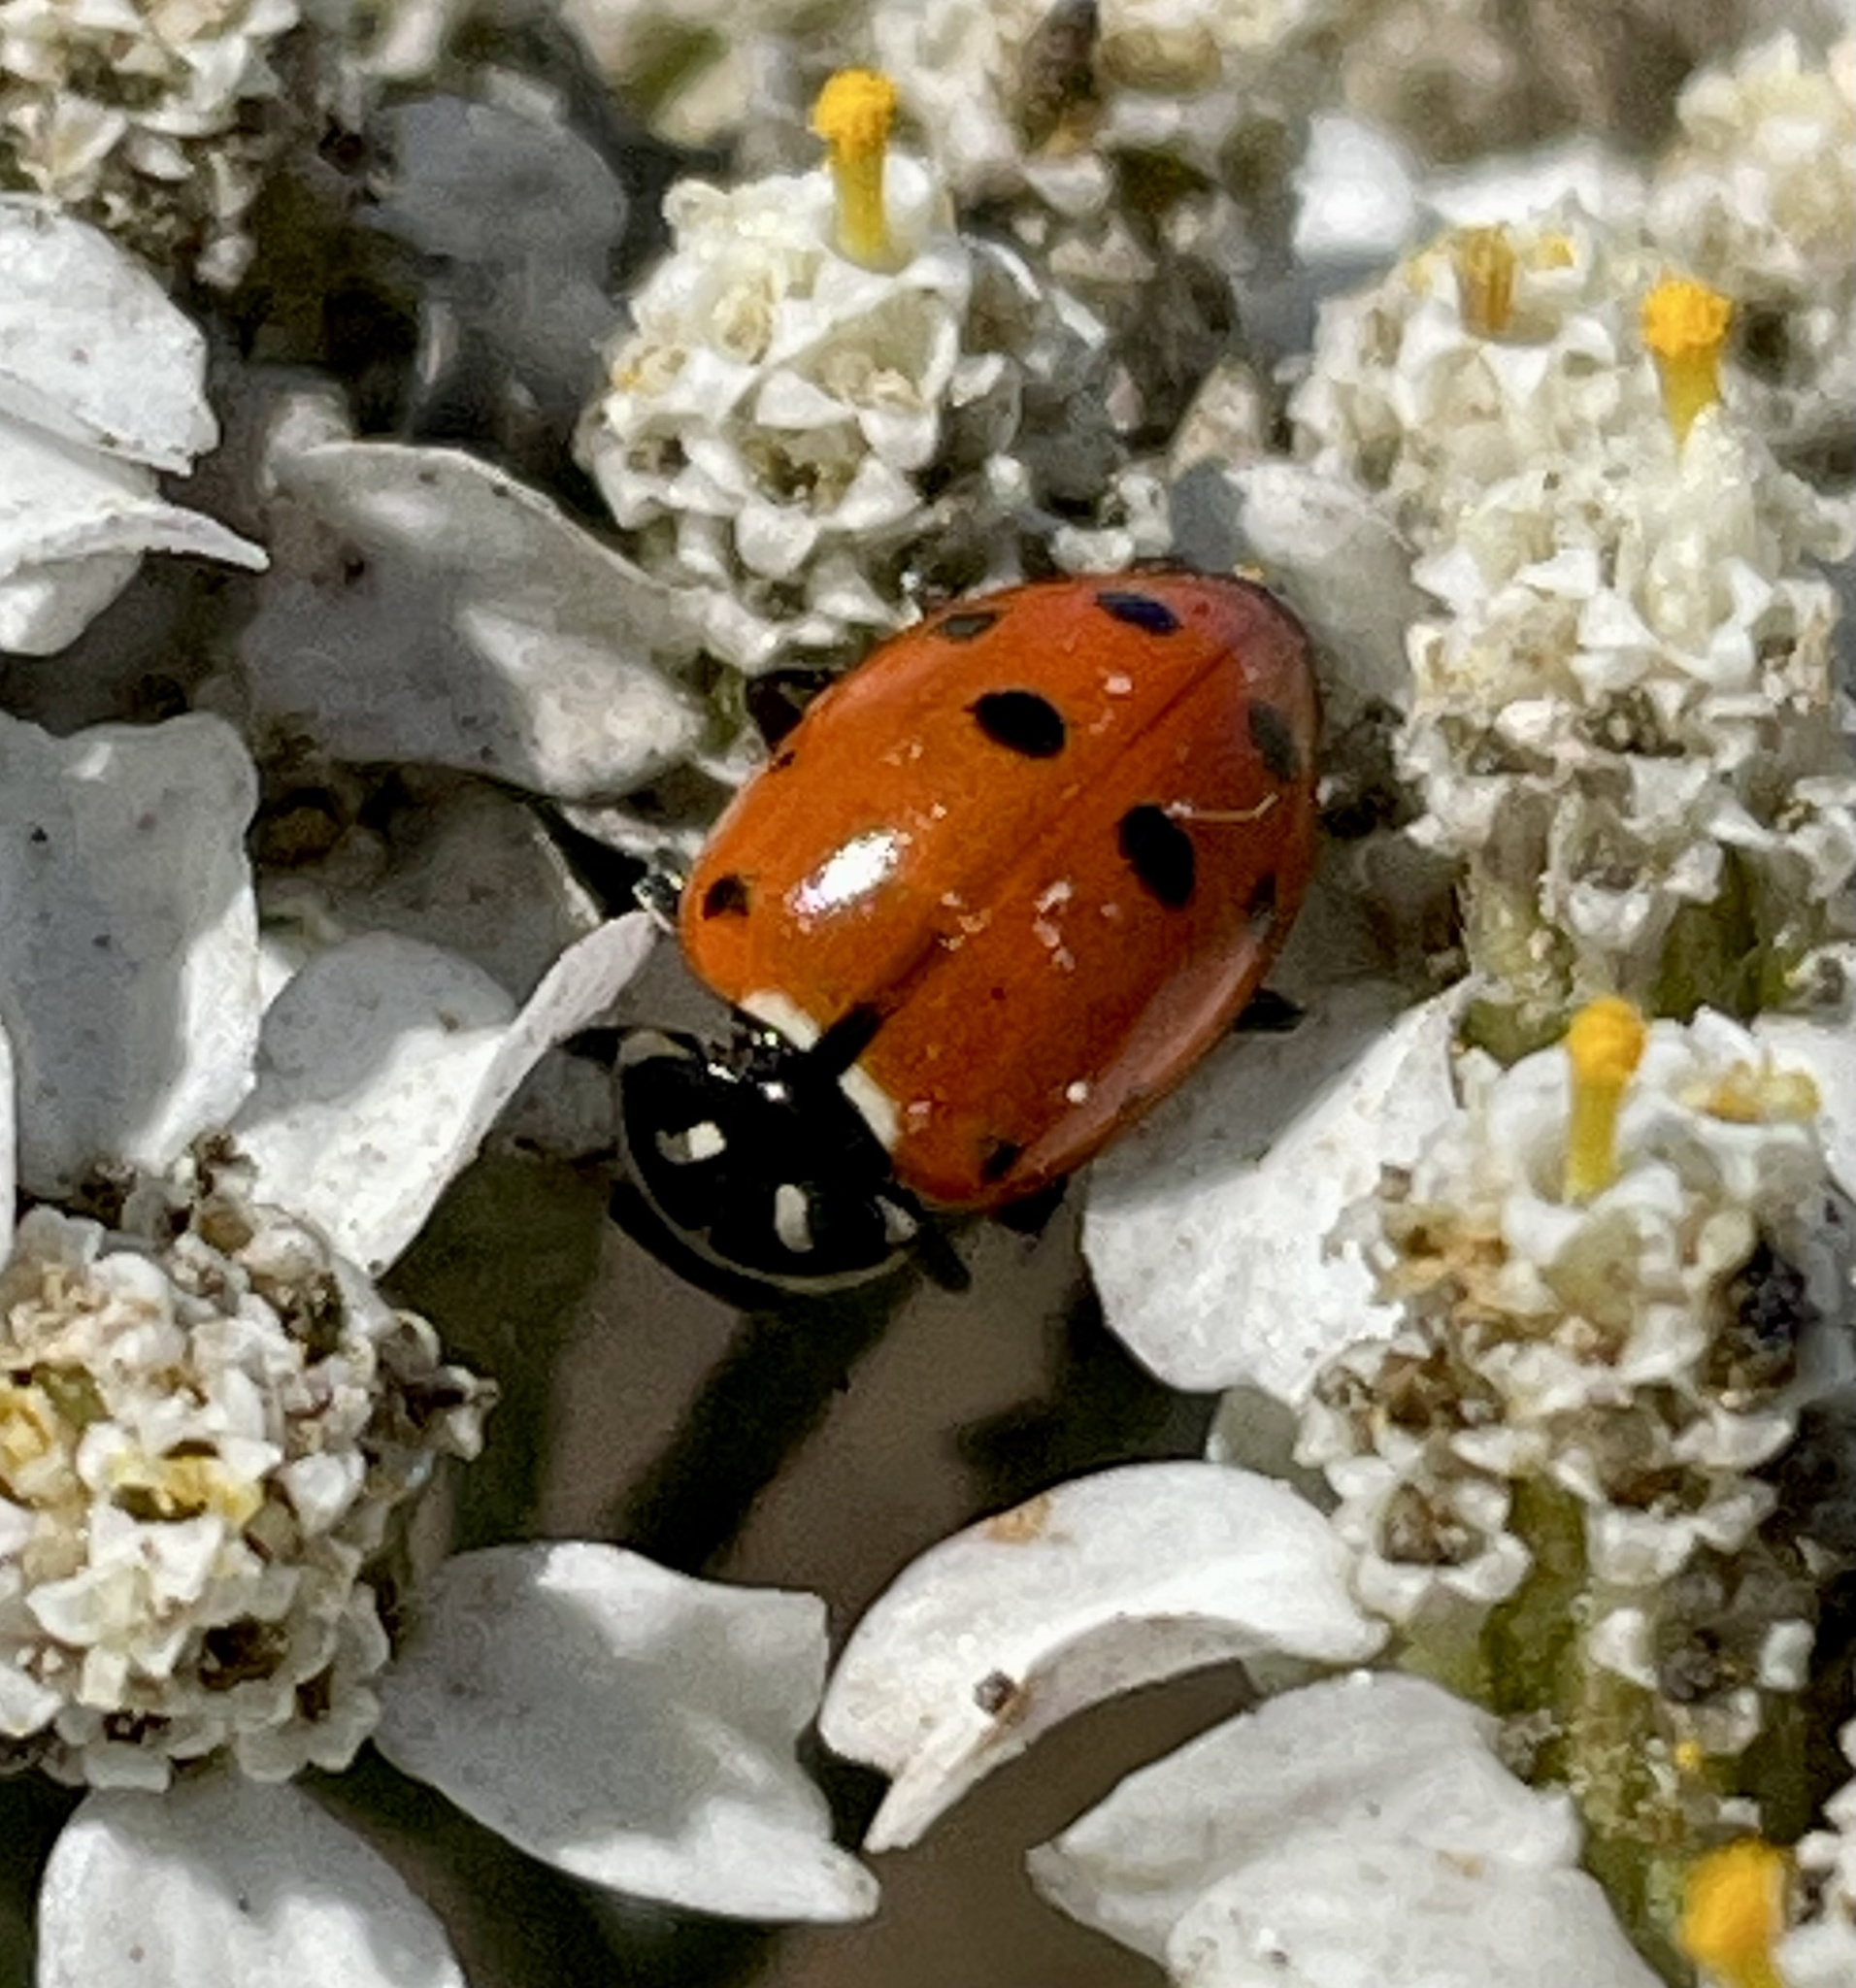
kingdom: Animalia
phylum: Arthropoda
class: Insecta
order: Coleoptera
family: Coccinellidae
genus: Hippodamia
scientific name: Hippodamia convergens
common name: Convergent lady beetle
